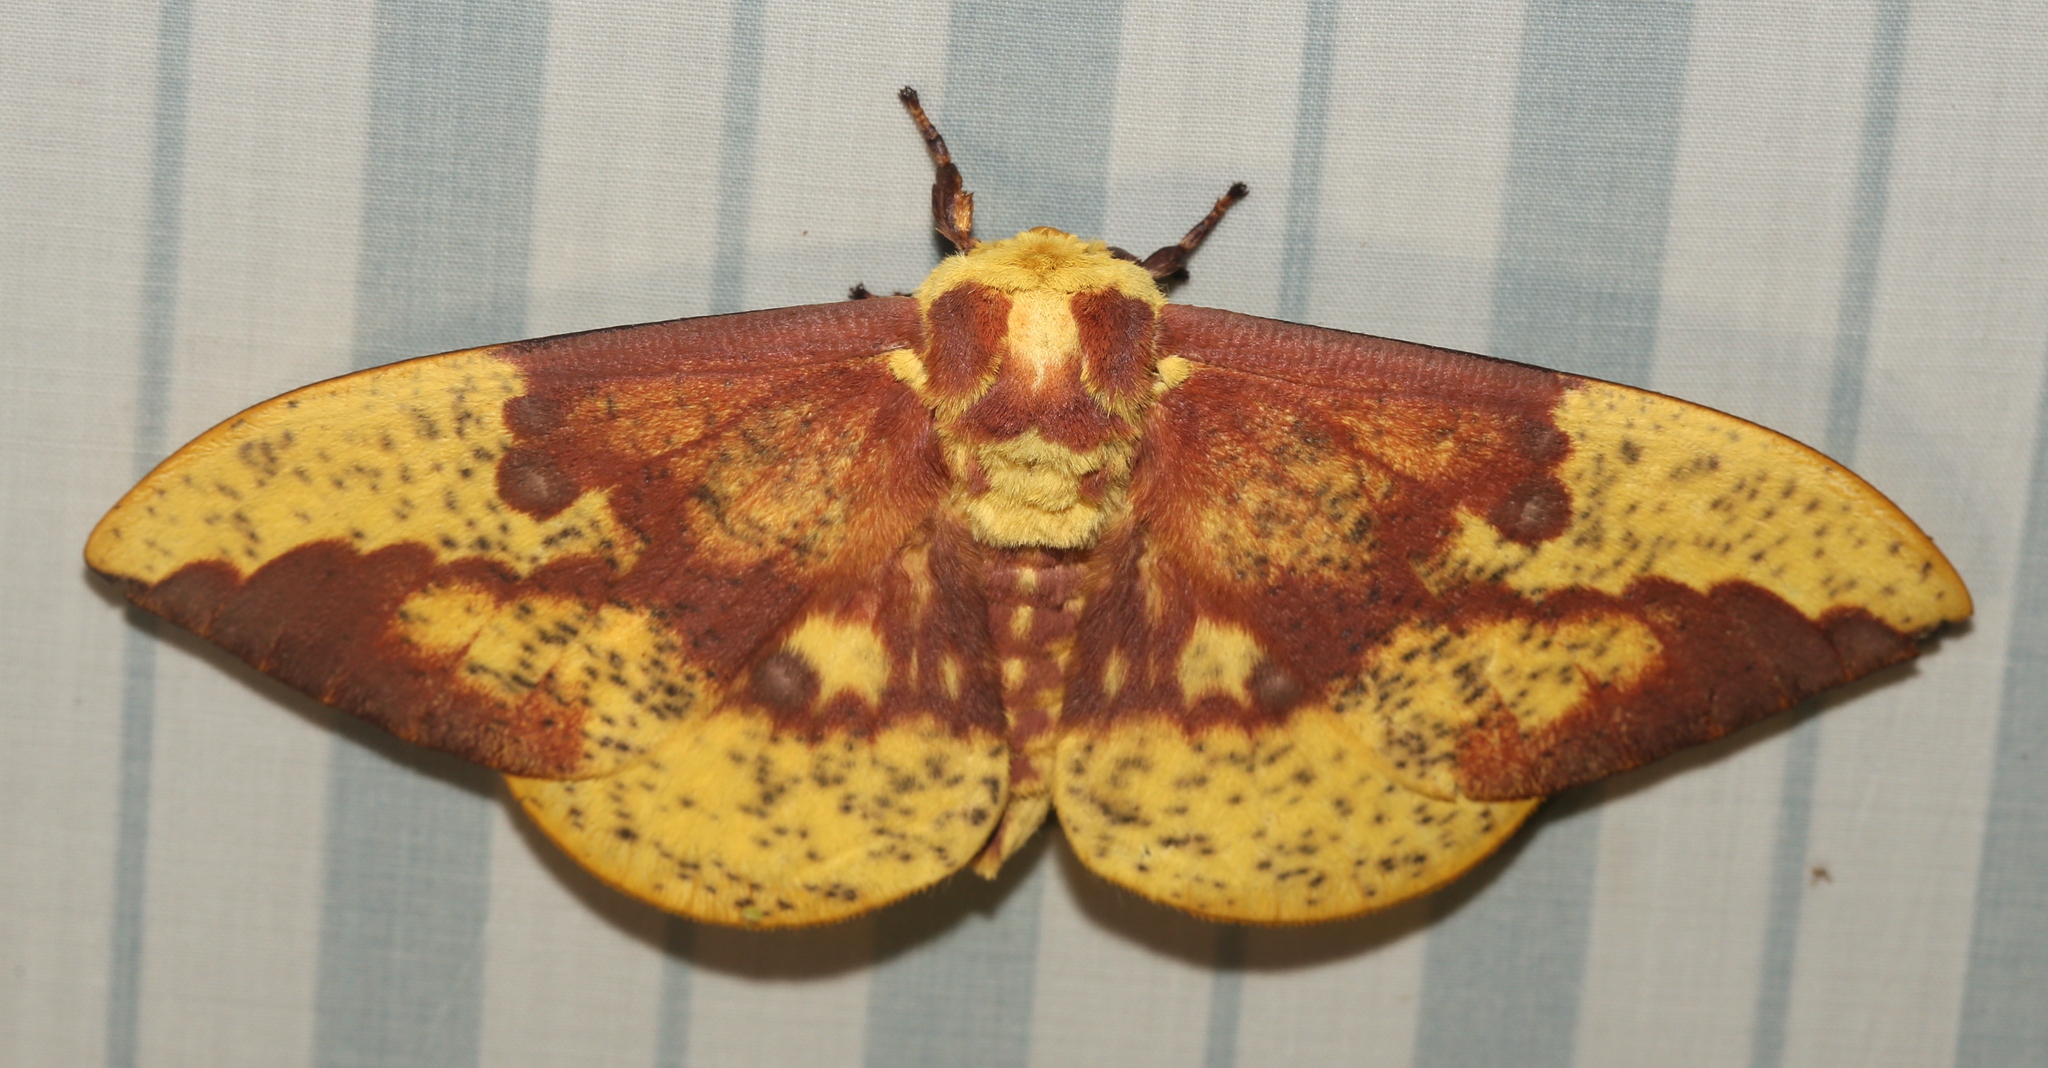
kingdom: Animalia
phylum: Arthropoda
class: Insecta
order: Lepidoptera
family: Saturniidae
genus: Eacles
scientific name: Eacles imperialis
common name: Imperial moth
